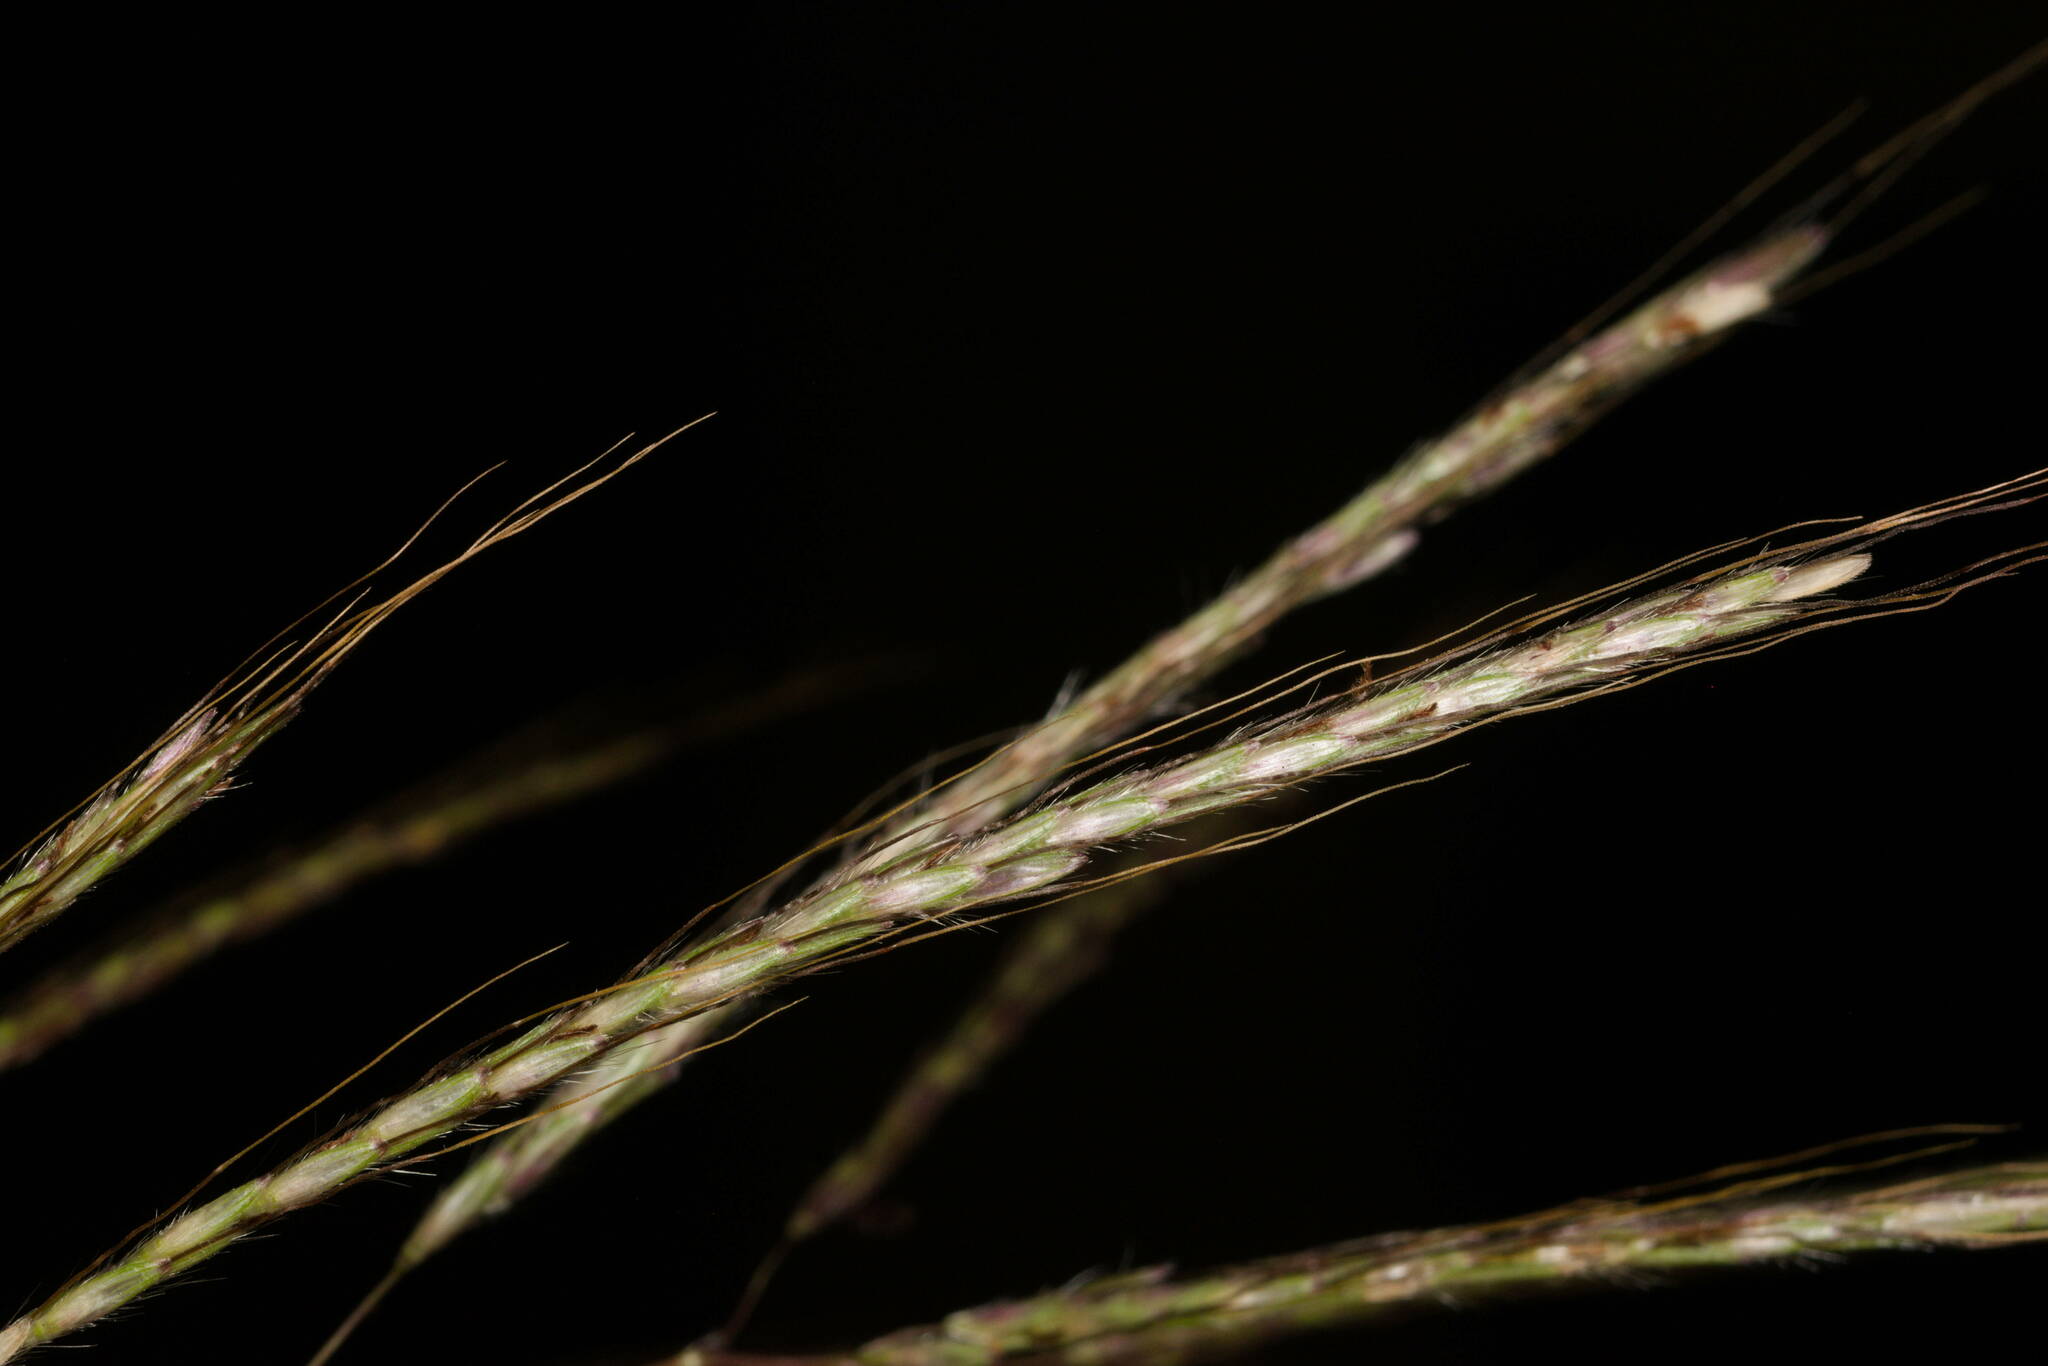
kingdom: Plantae
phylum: Tracheophyta
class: Liliopsida
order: Poales
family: Poaceae
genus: Dichanthium
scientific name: Dichanthium annulatum
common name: Kleberg's bluestem
